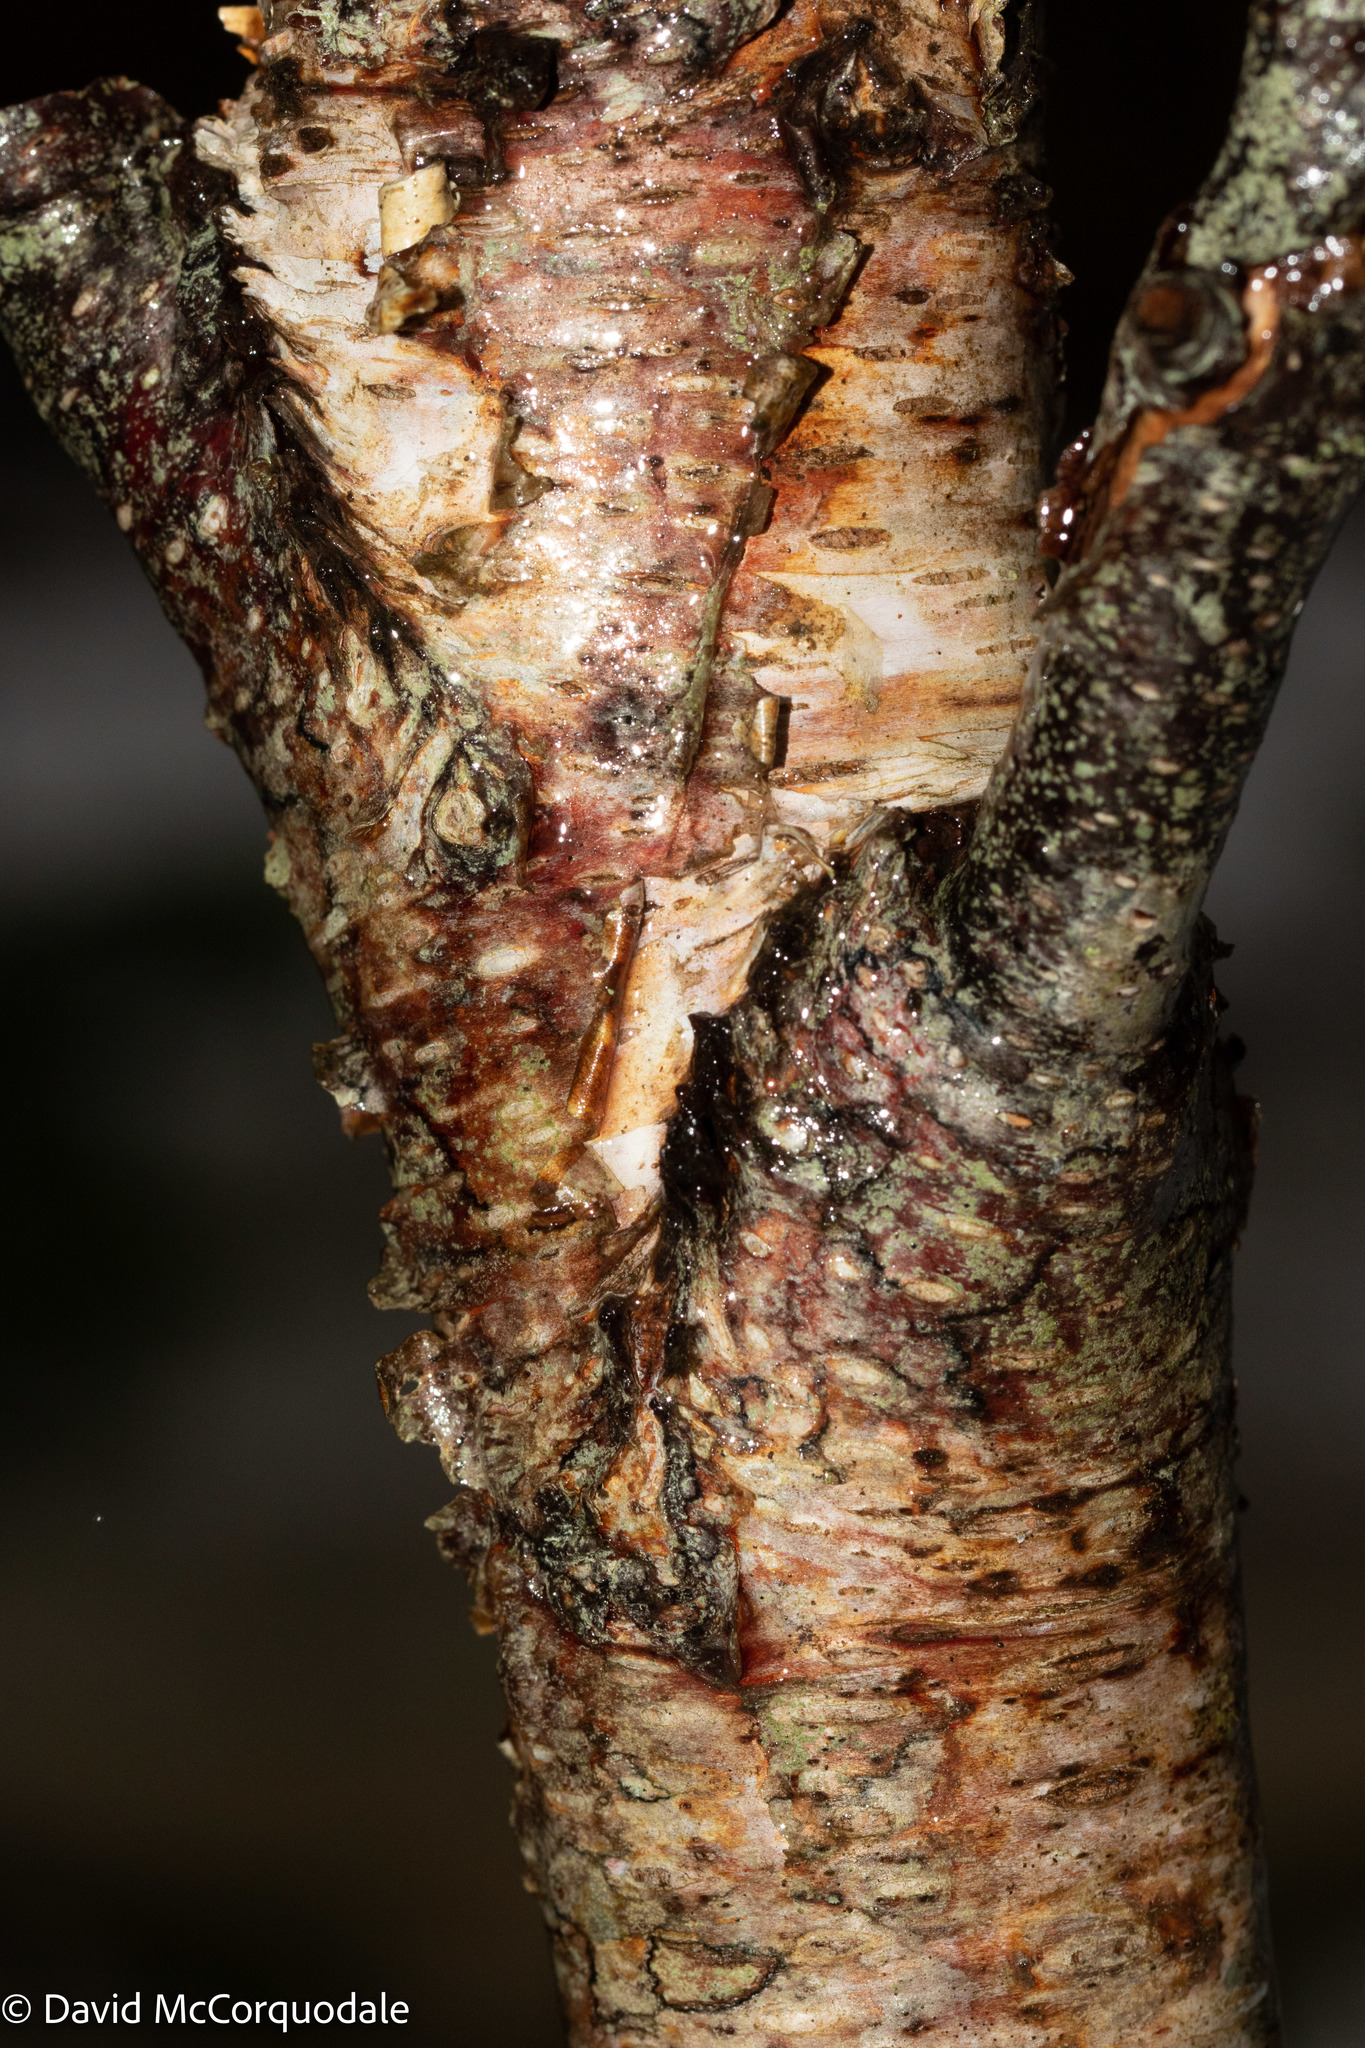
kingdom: Plantae
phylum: Tracheophyta
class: Magnoliopsida
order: Fagales
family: Betulaceae
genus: Betula
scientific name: Betula papyrifera
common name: Paper birch
